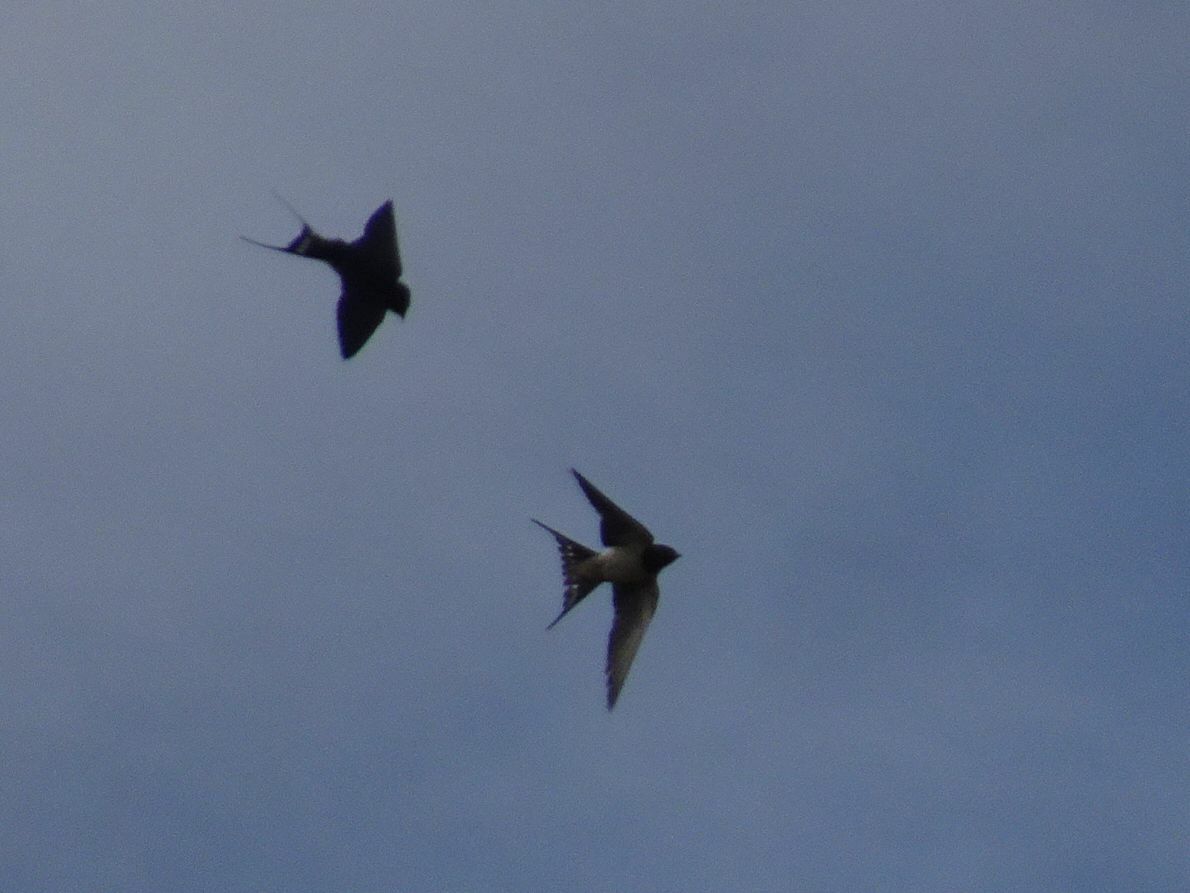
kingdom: Animalia
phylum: Chordata
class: Aves
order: Passeriformes
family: Hirundinidae
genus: Hirundo
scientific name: Hirundo rustica
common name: Barn swallow
